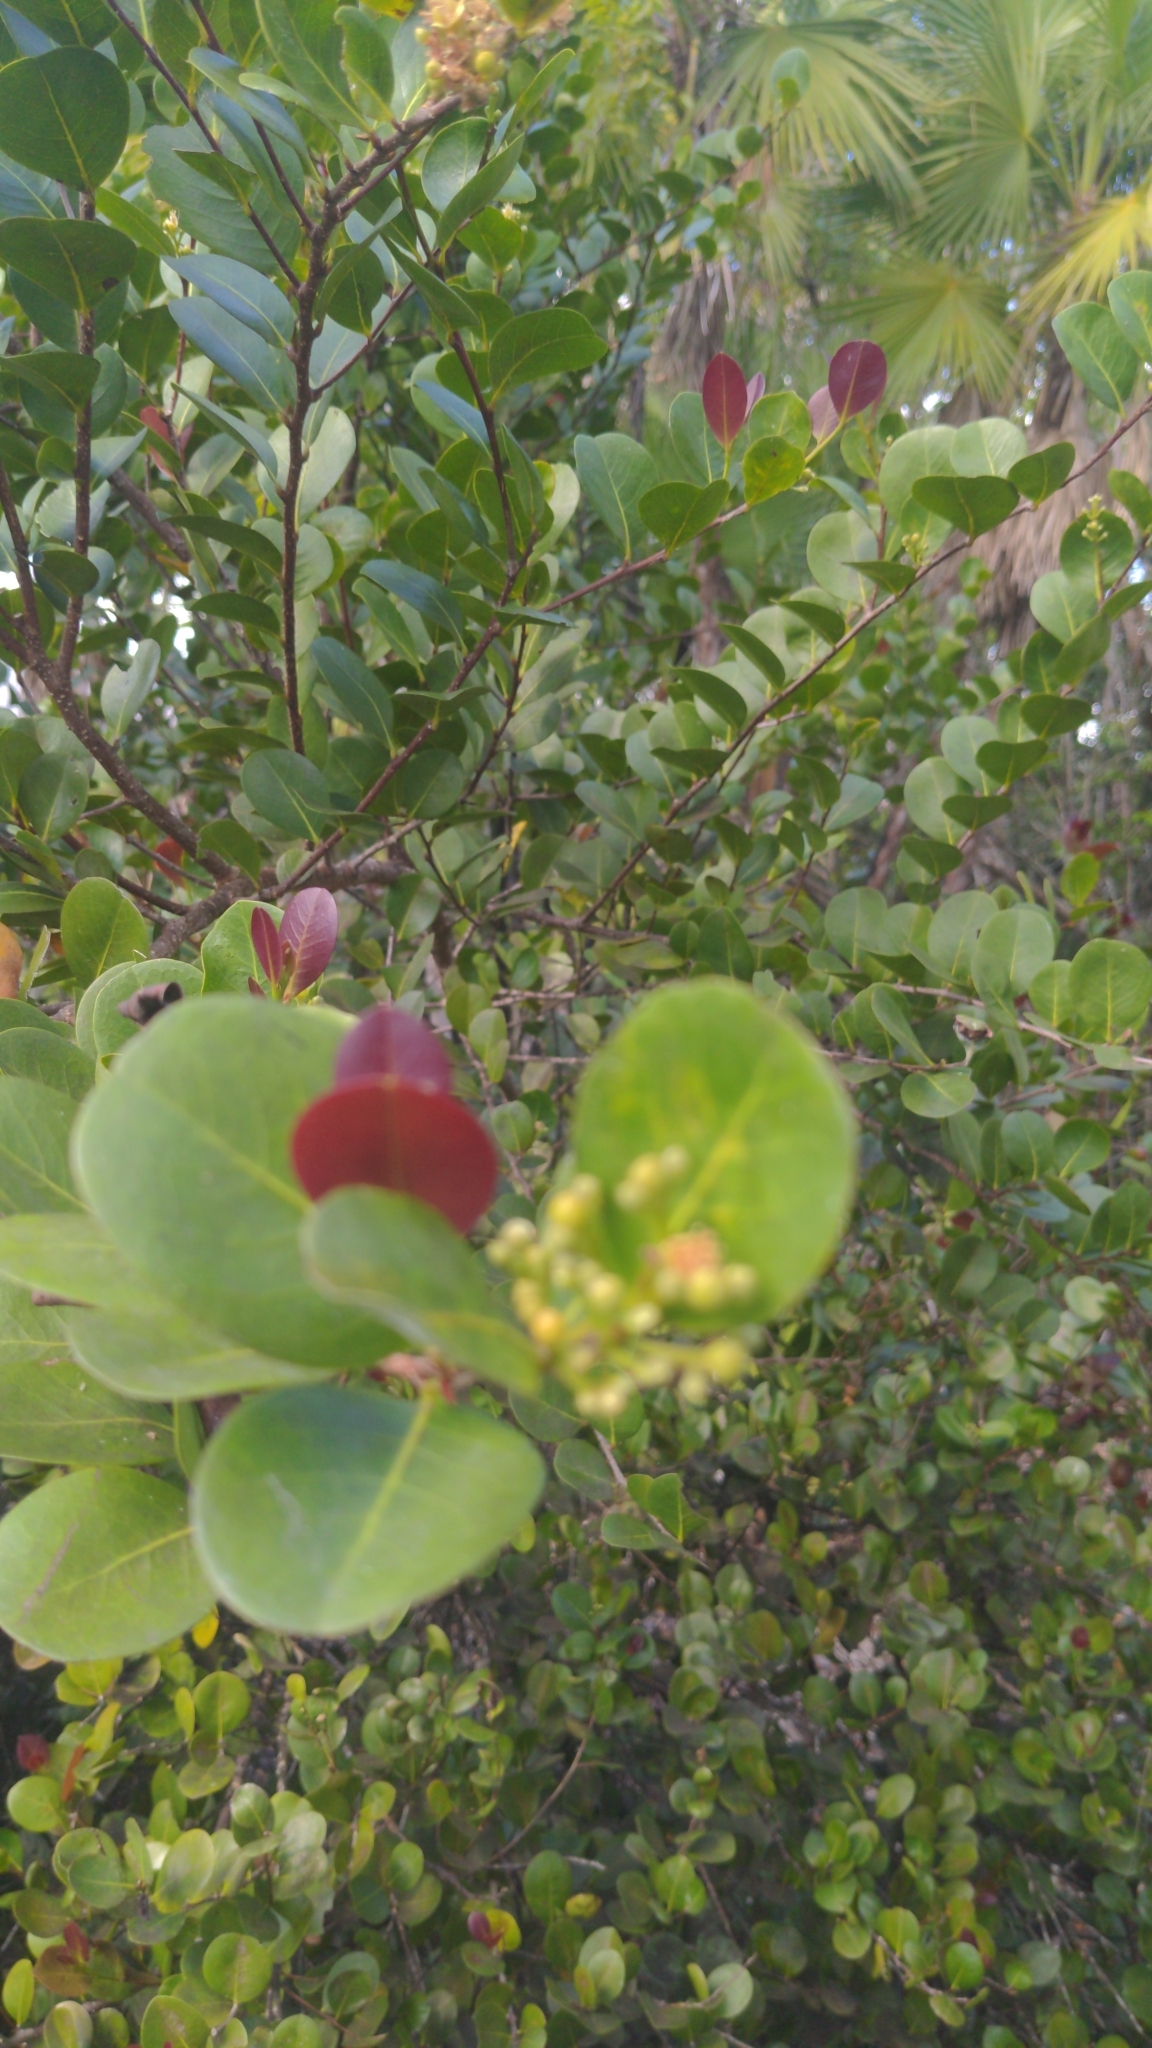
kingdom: Plantae
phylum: Tracheophyta
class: Magnoliopsida
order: Malpighiales
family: Chrysobalanaceae
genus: Chrysobalanus
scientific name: Chrysobalanus icaco
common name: Coco plum
